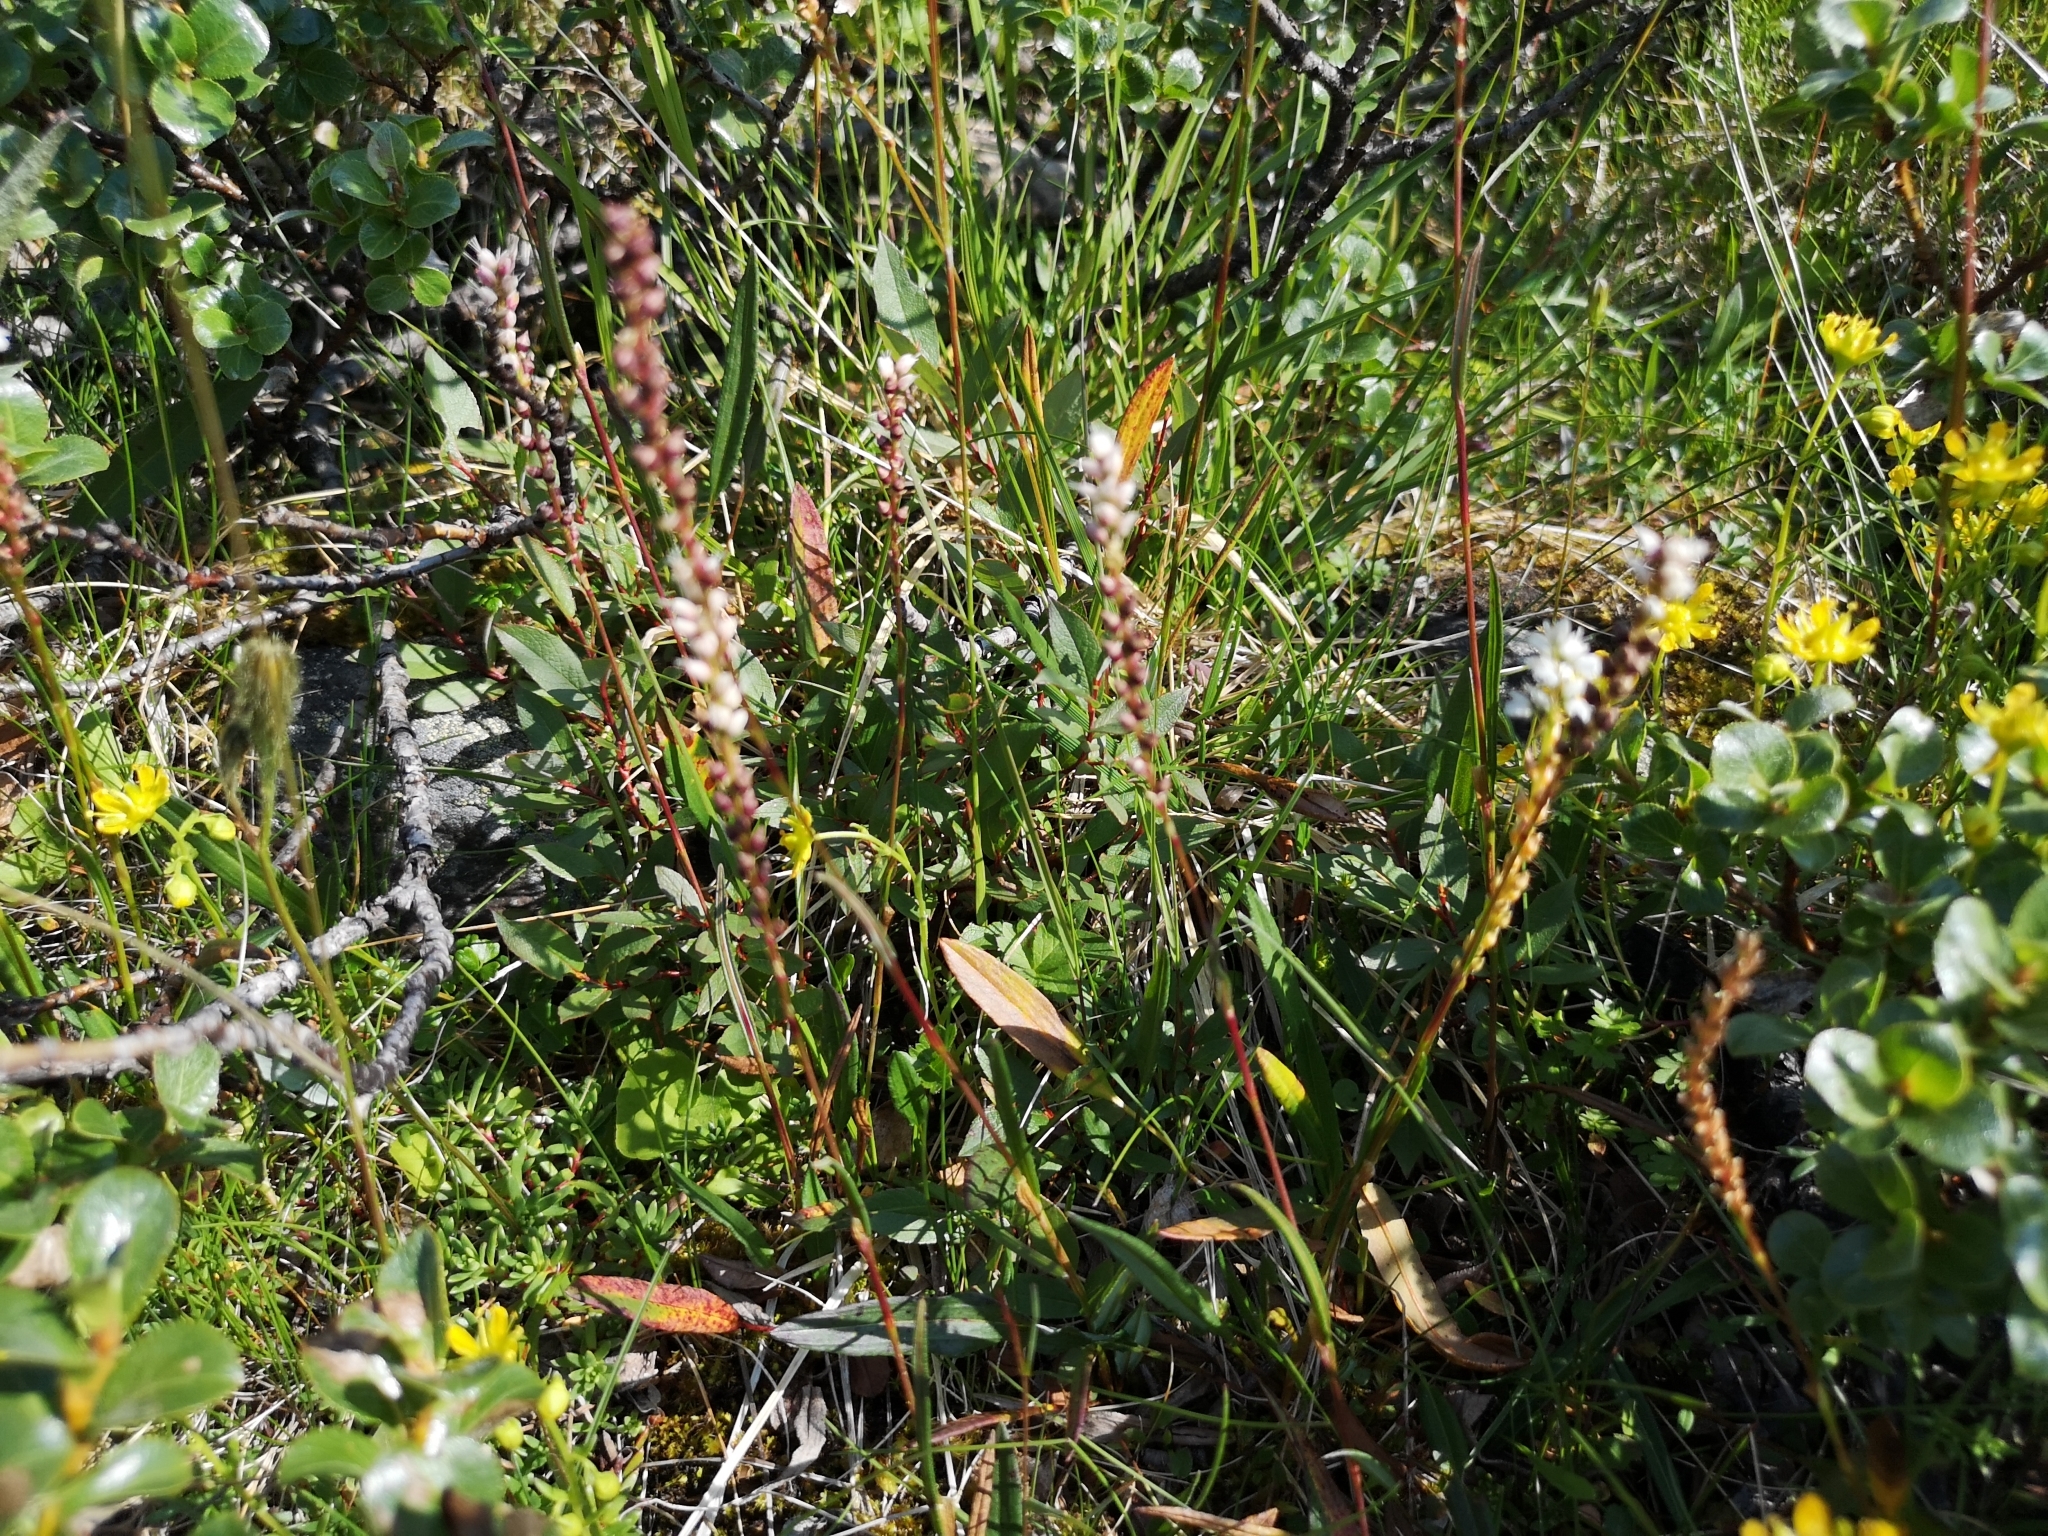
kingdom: Plantae
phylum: Tracheophyta
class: Magnoliopsida
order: Caryophyllales
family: Polygonaceae
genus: Bistorta
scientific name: Bistorta vivipara
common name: Alpine bistort
